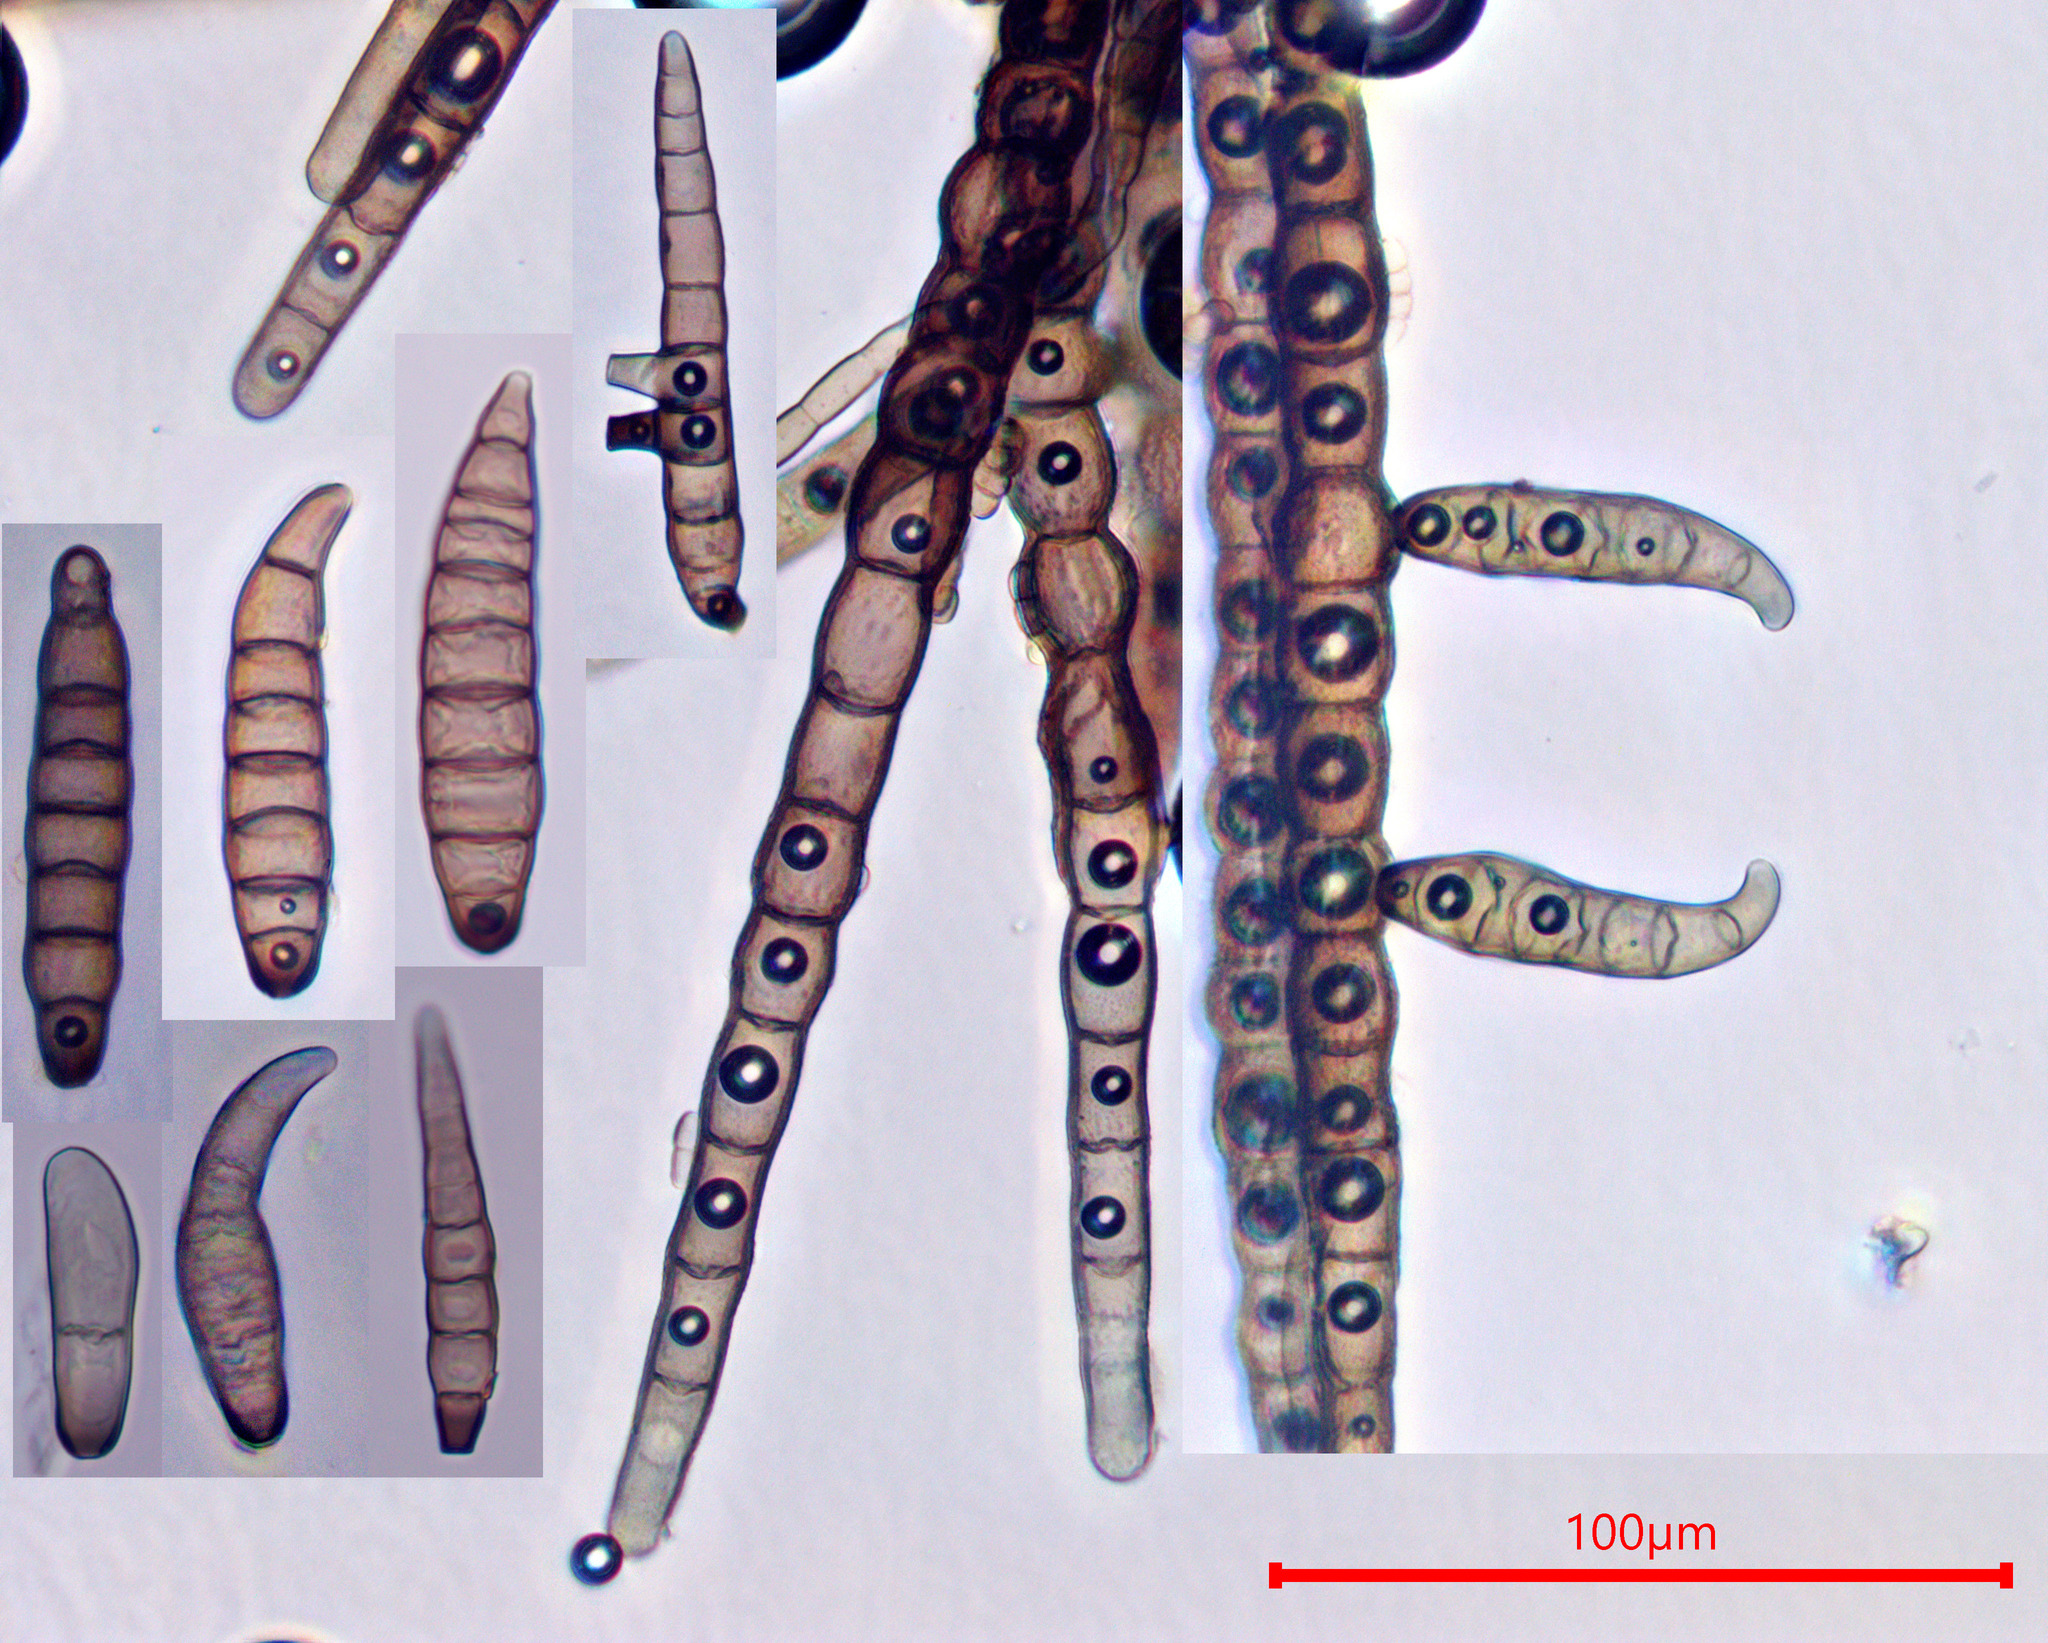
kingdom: Fungi
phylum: Ascomycota
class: Dothideomycetes
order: Capnodiales
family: Euantennariaceae
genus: Euantennaria
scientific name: Euantennaria pacifica
